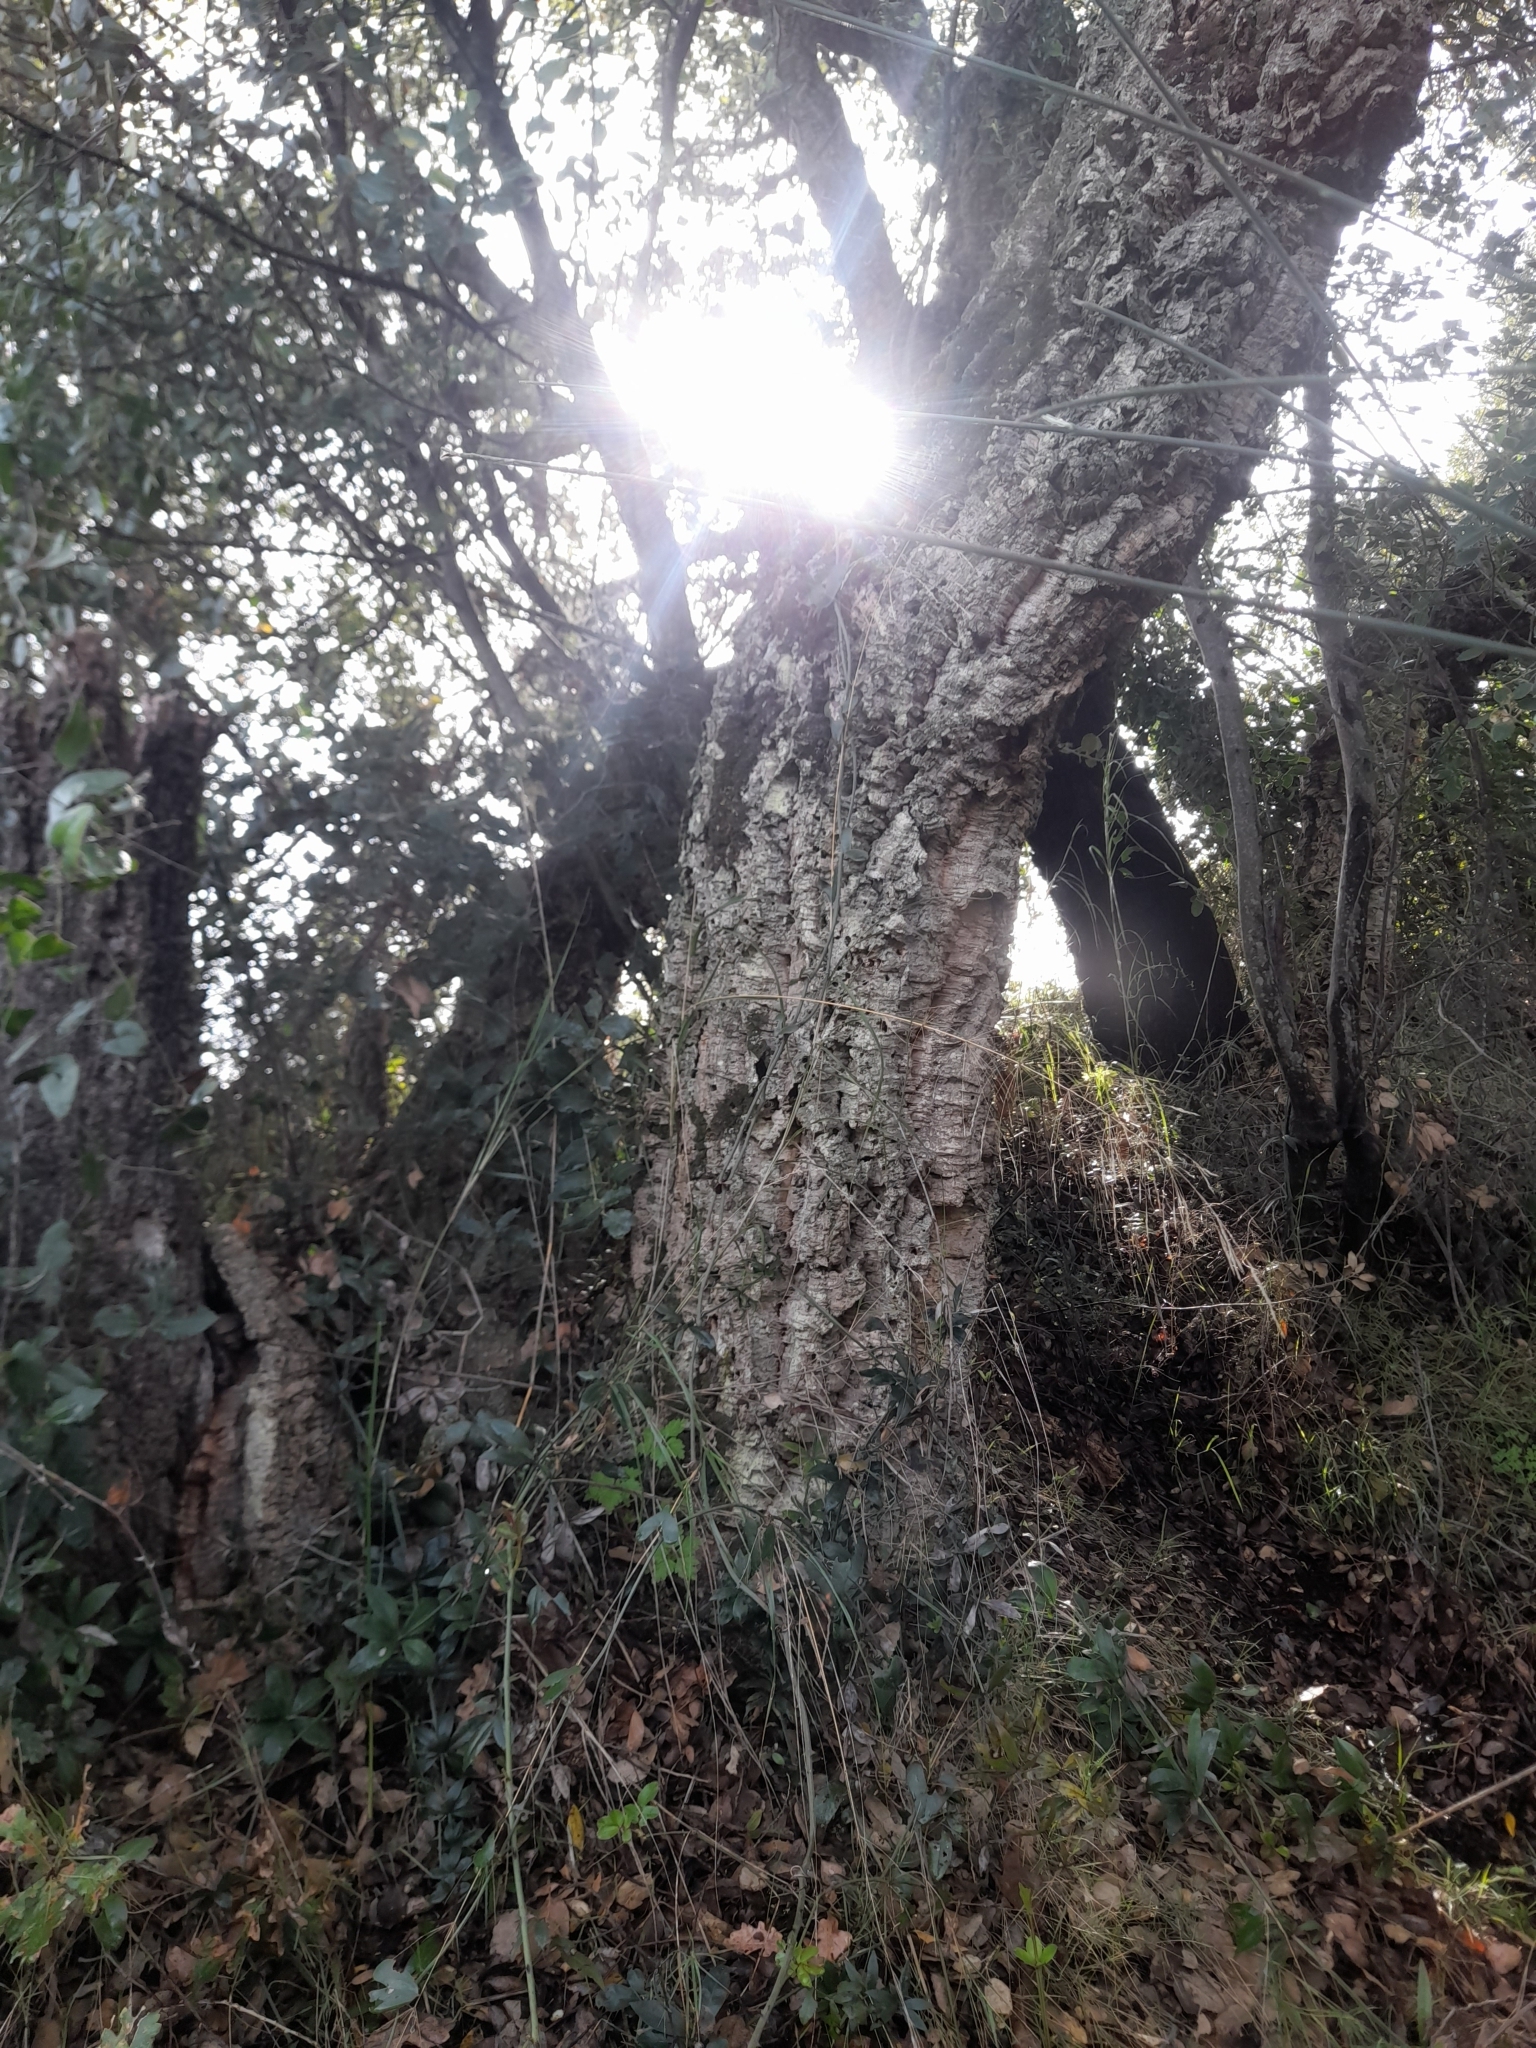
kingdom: Plantae
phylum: Tracheophyta
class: Magnoliopsida
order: Fagales
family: Fagaceae
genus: Quercus
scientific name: Quercus suber
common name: Cork oak
